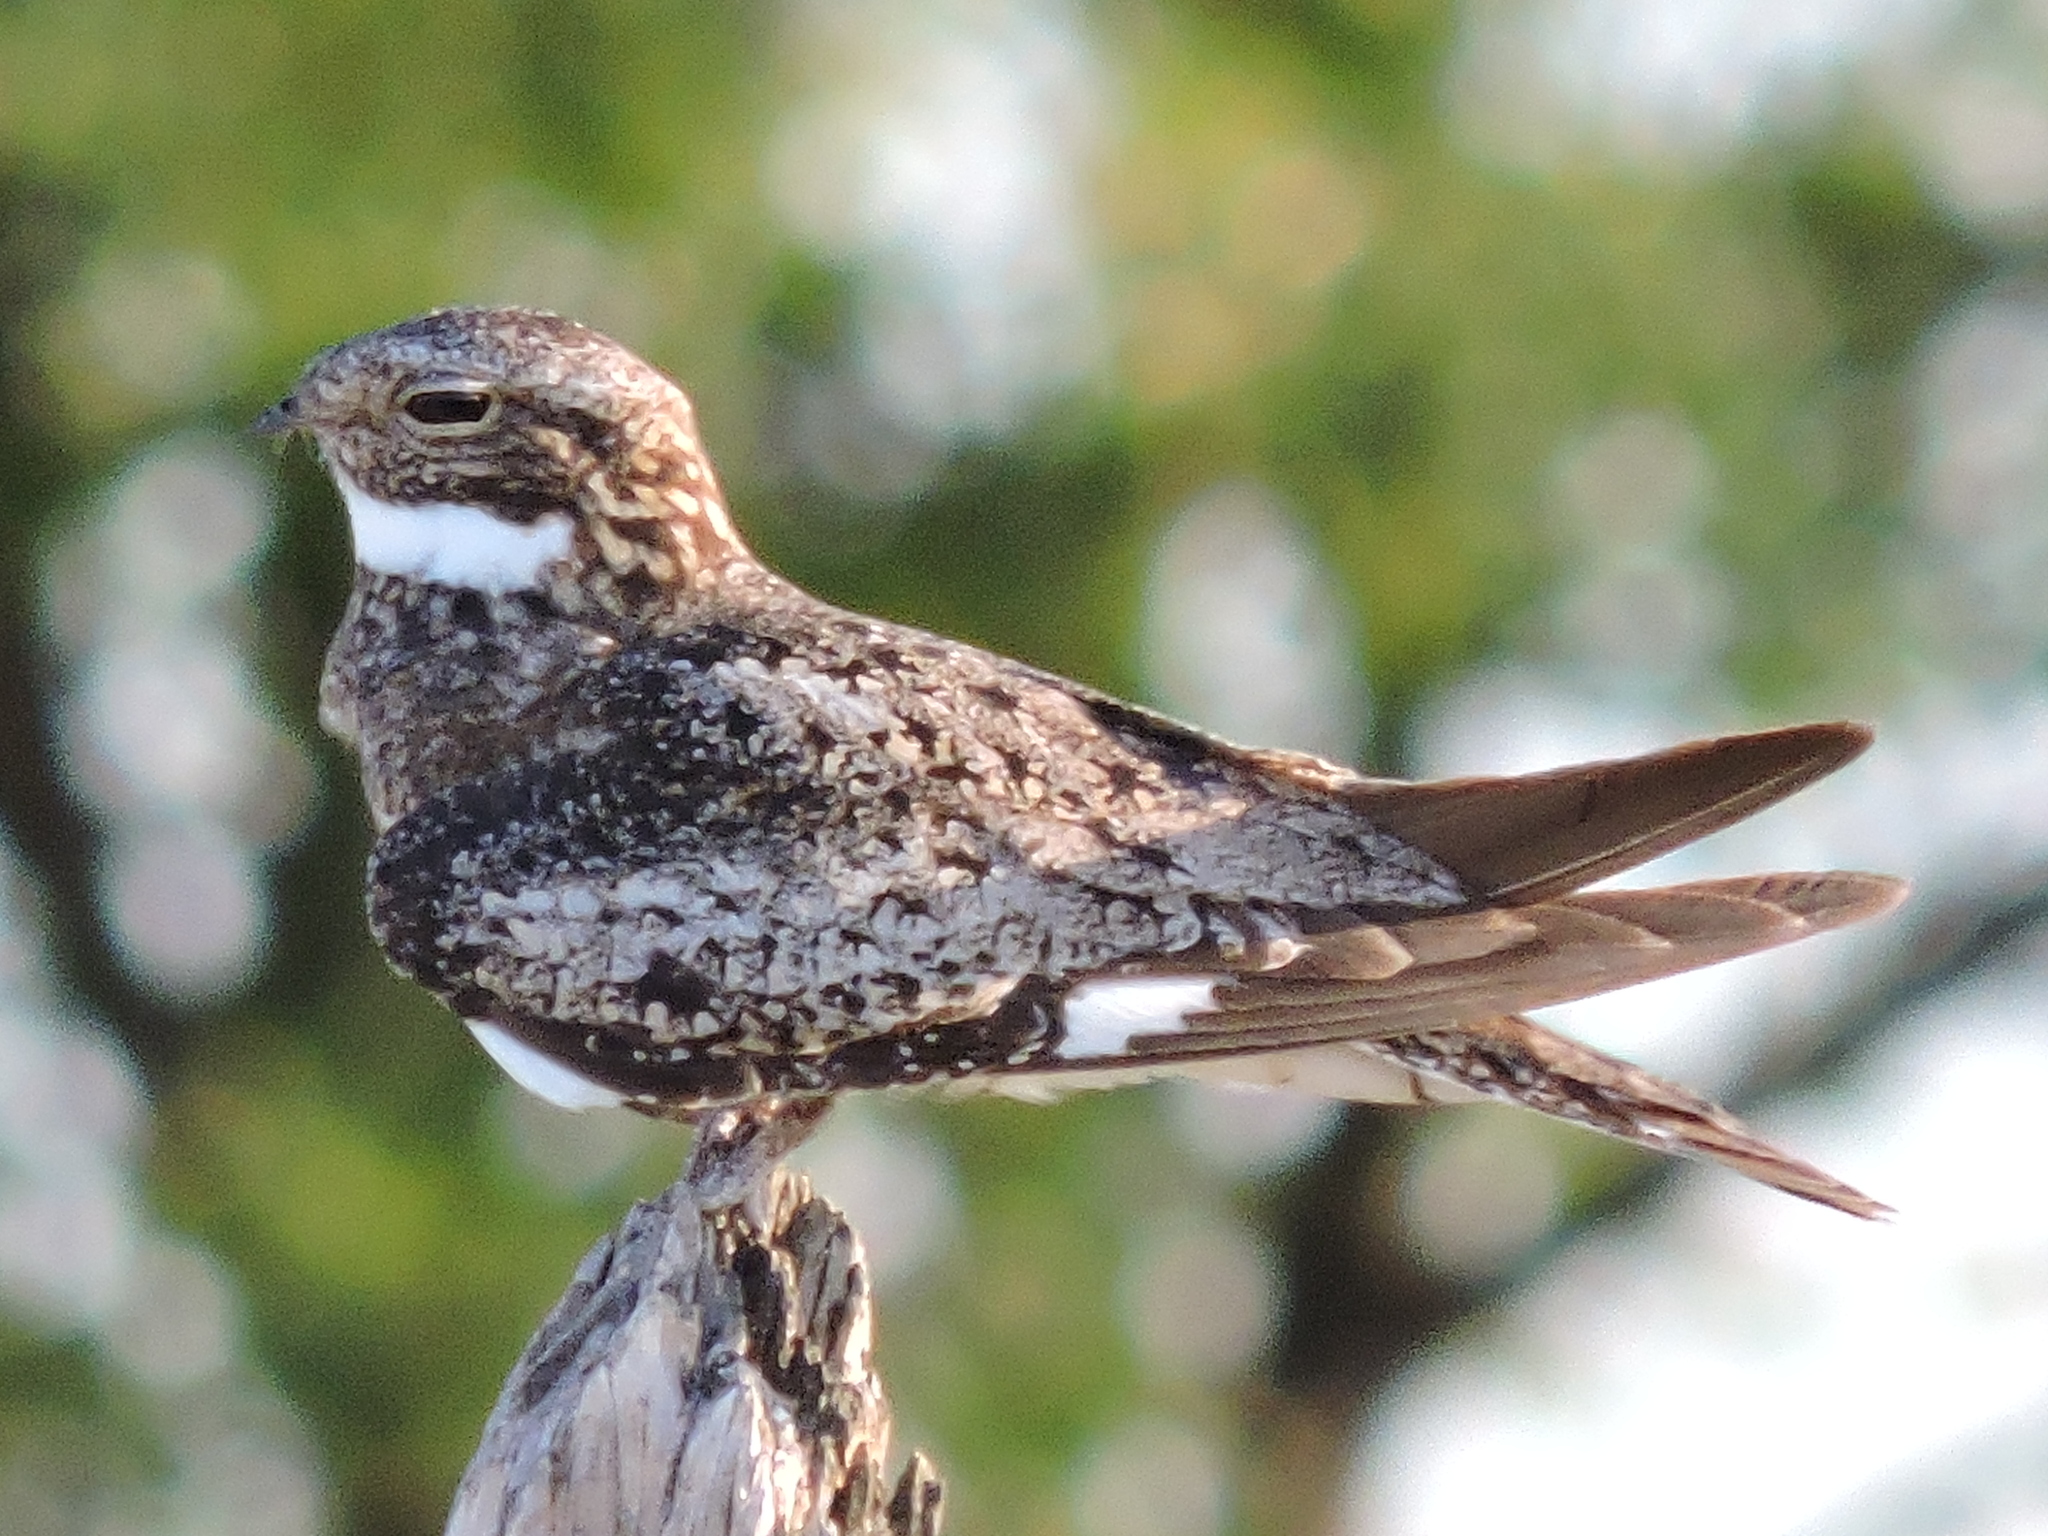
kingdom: Animalia
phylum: Chordata
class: Aves
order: Caprimulgiformes
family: Caprimulgidae
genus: Chordeiles
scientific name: Chordeiles minor
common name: Common nighthawk
